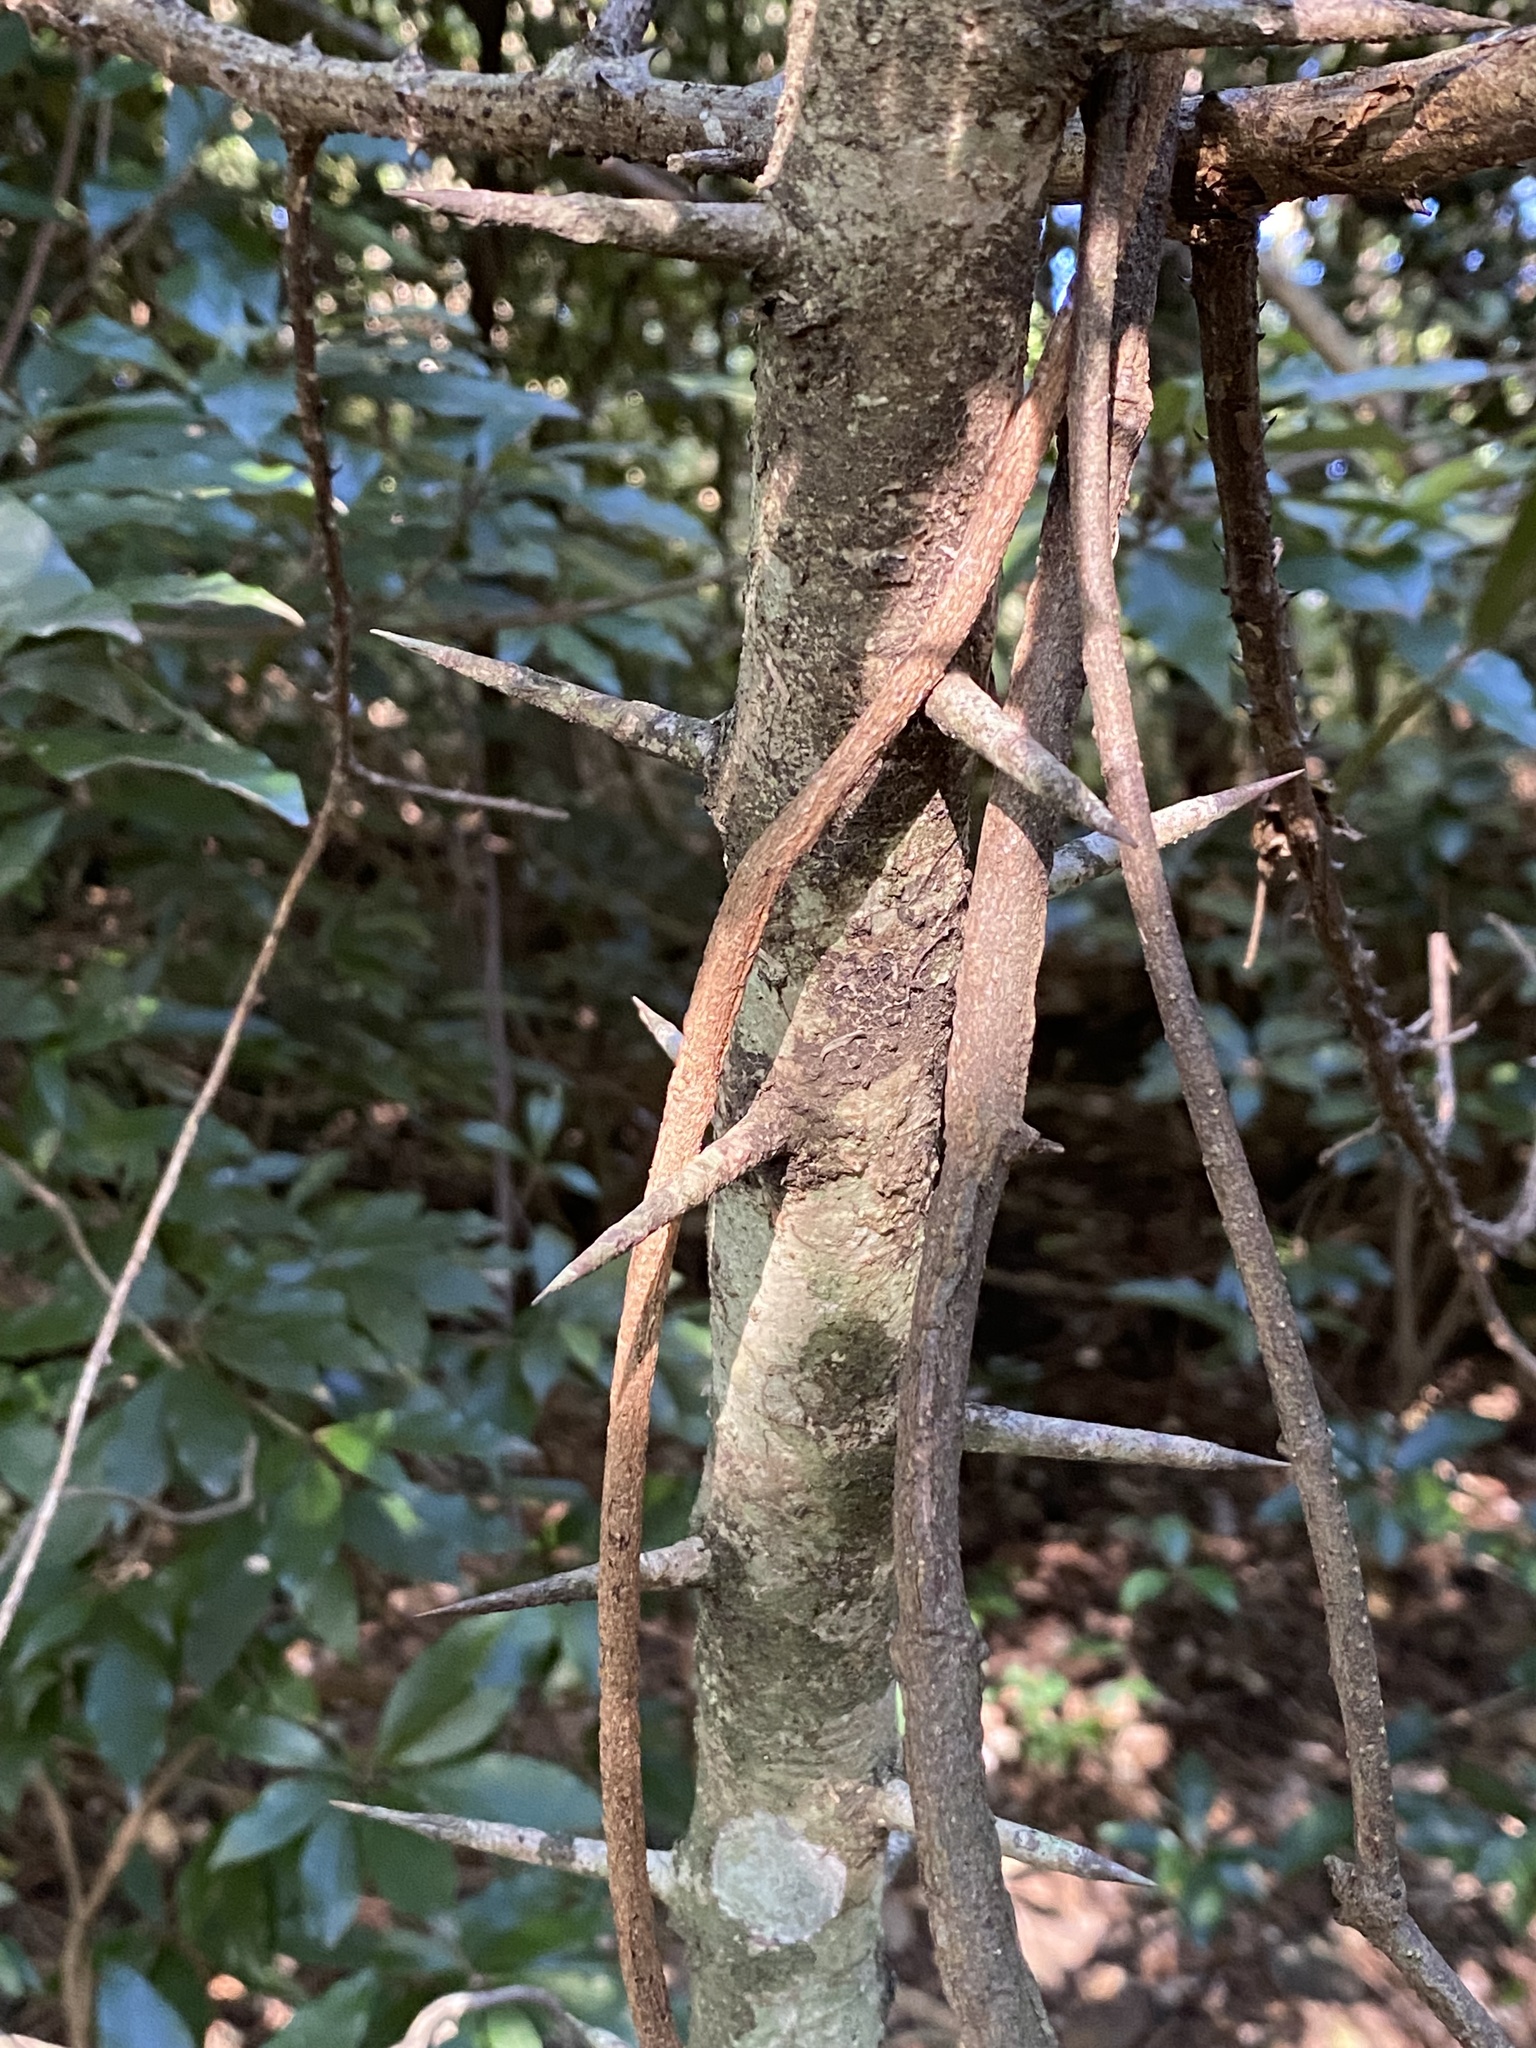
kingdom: Plantae
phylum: Tracheophyta
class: Magnoliopsida
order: Fabales
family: Fabaceae
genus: Dalbergia
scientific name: Dalbergia armata
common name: Hluhluwe climber
